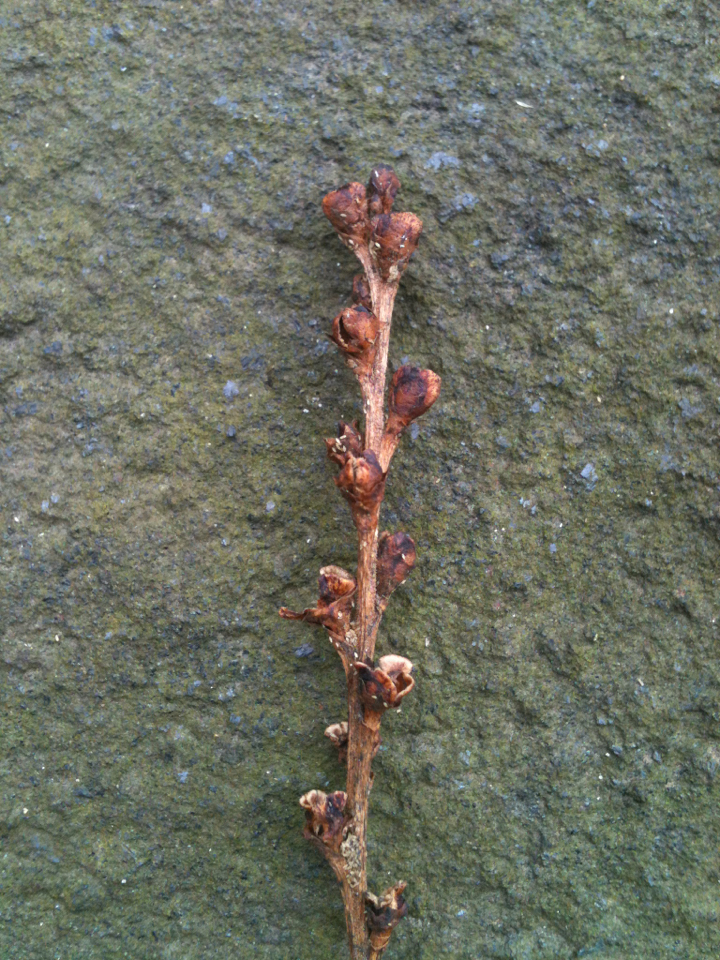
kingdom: Plantae
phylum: Tracheophyta
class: Magnoliopsida
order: Lamiales
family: Orobanchaceae
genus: Epifagus
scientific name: Epifagus virginiana
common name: Beechdrops
